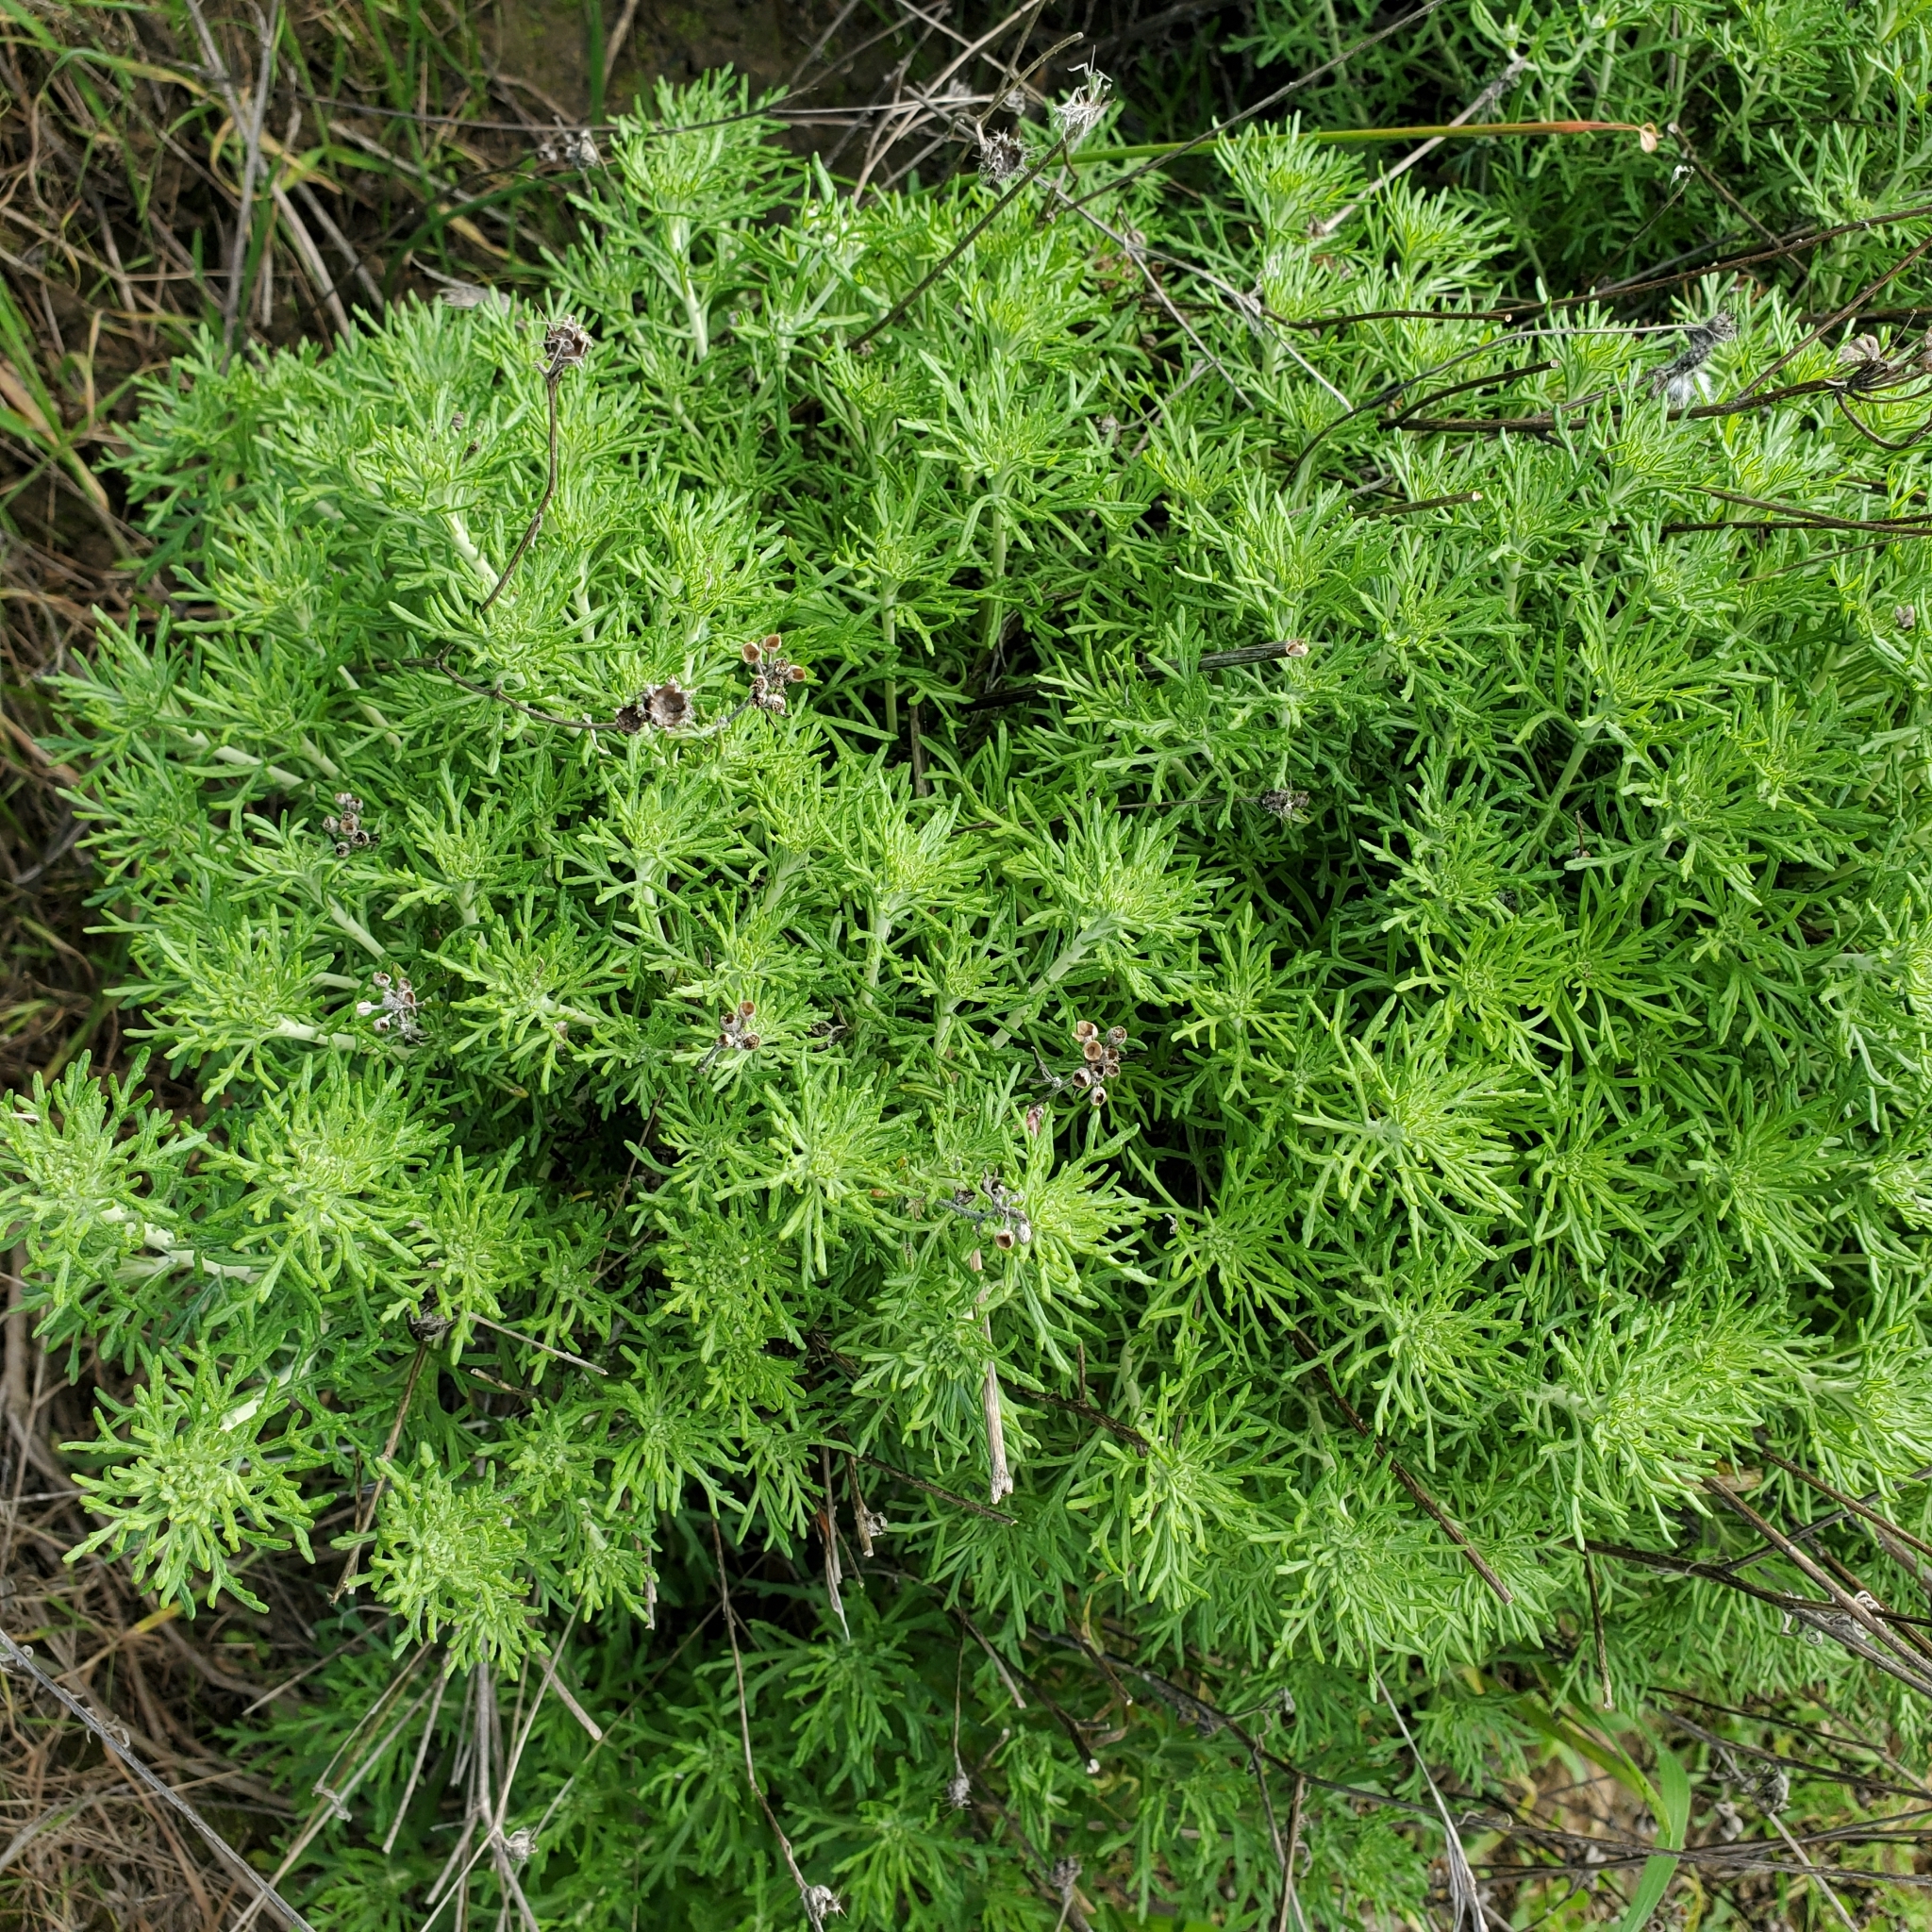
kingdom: Plantae
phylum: Tracheophyta
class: Magnoliopsida
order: Asterales
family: Asteraceae
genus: Eriophyllum
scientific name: Eriophyllum confertiflorum
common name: Golden-yarrow
